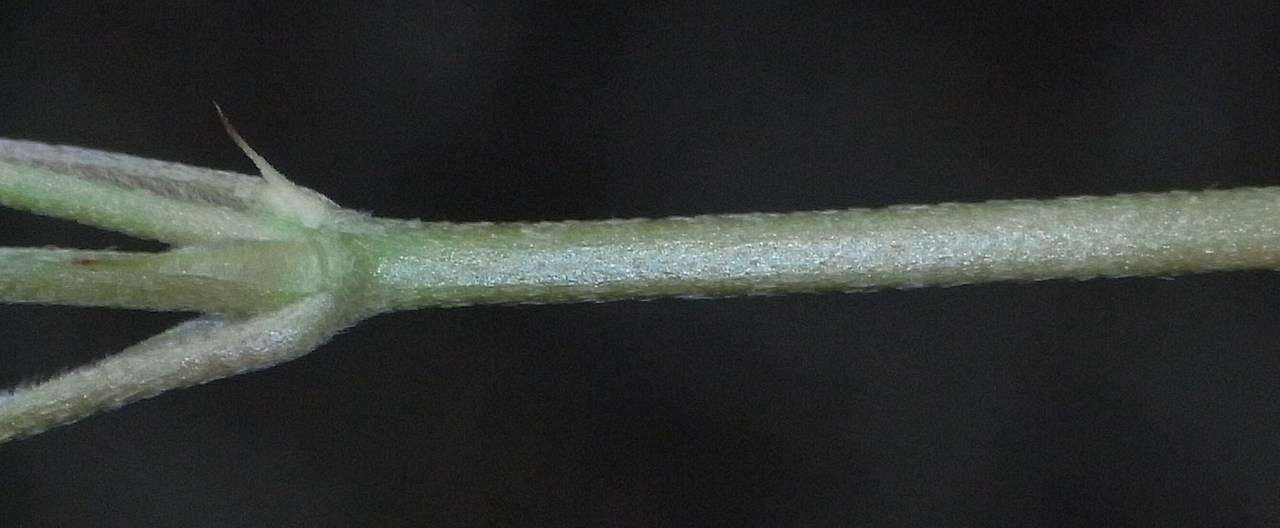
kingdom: Plantae
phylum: Tracheophyta
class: Magnoliopsida
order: Geraniales
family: Geraniaceae
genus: Geranium
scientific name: Geranium retrorsum
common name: New zealand geranium
